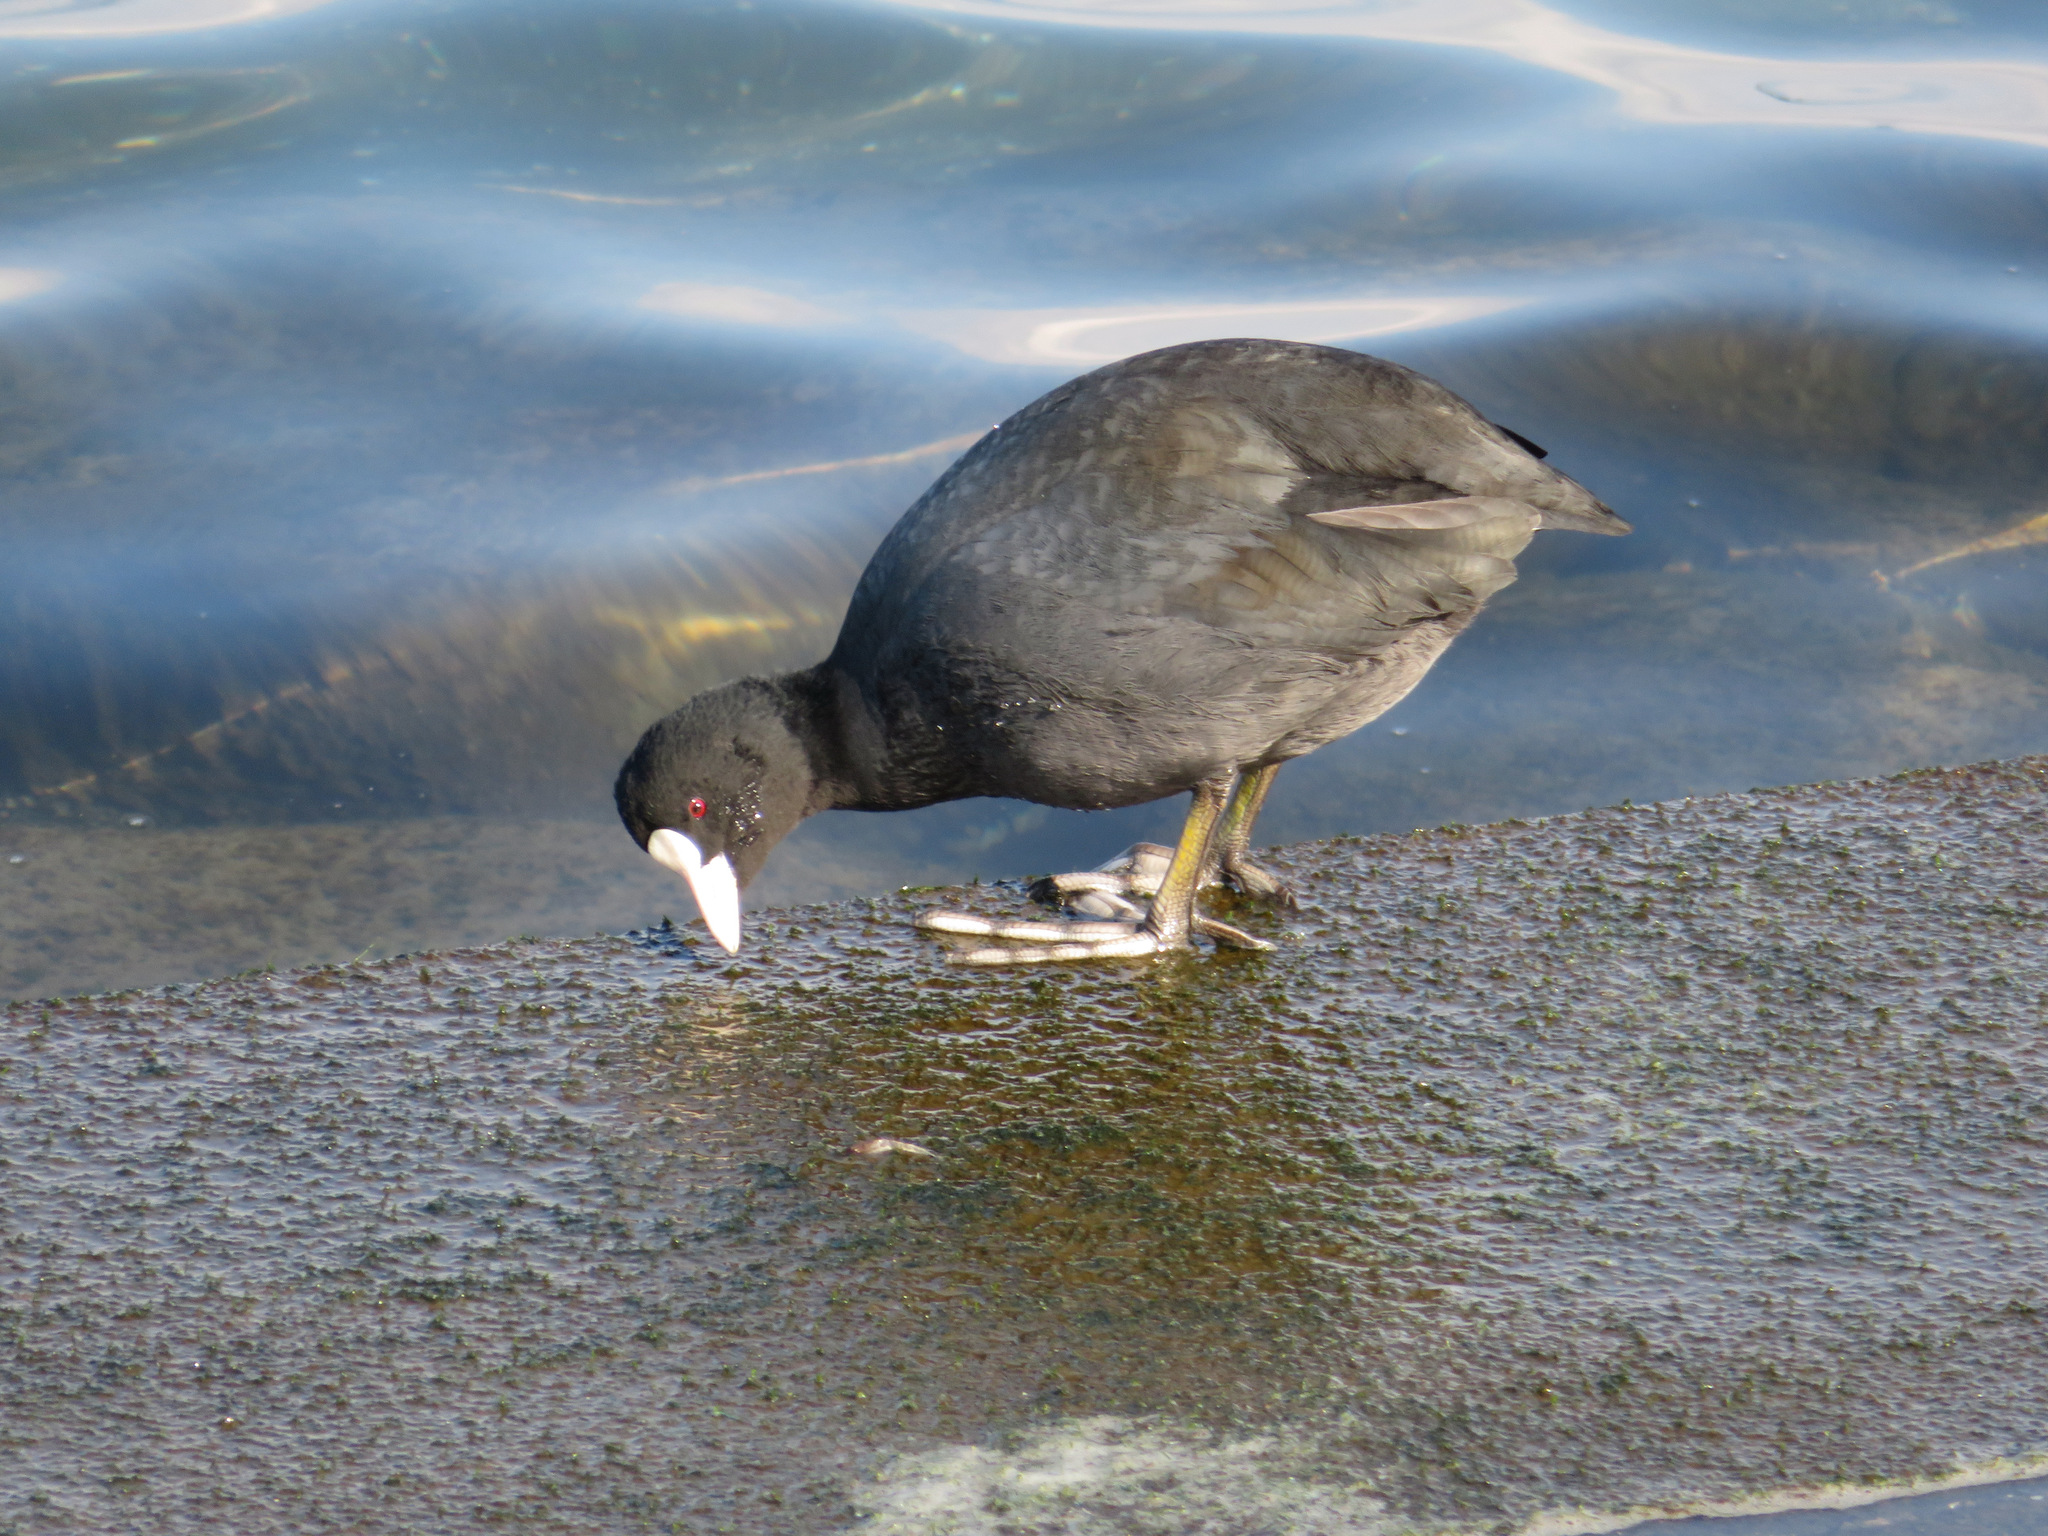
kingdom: Animalia
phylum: Chordata
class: Aves
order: Gruiformes
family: Rallidae
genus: Fulica
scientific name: Fulica atra
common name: Eurasian coot
